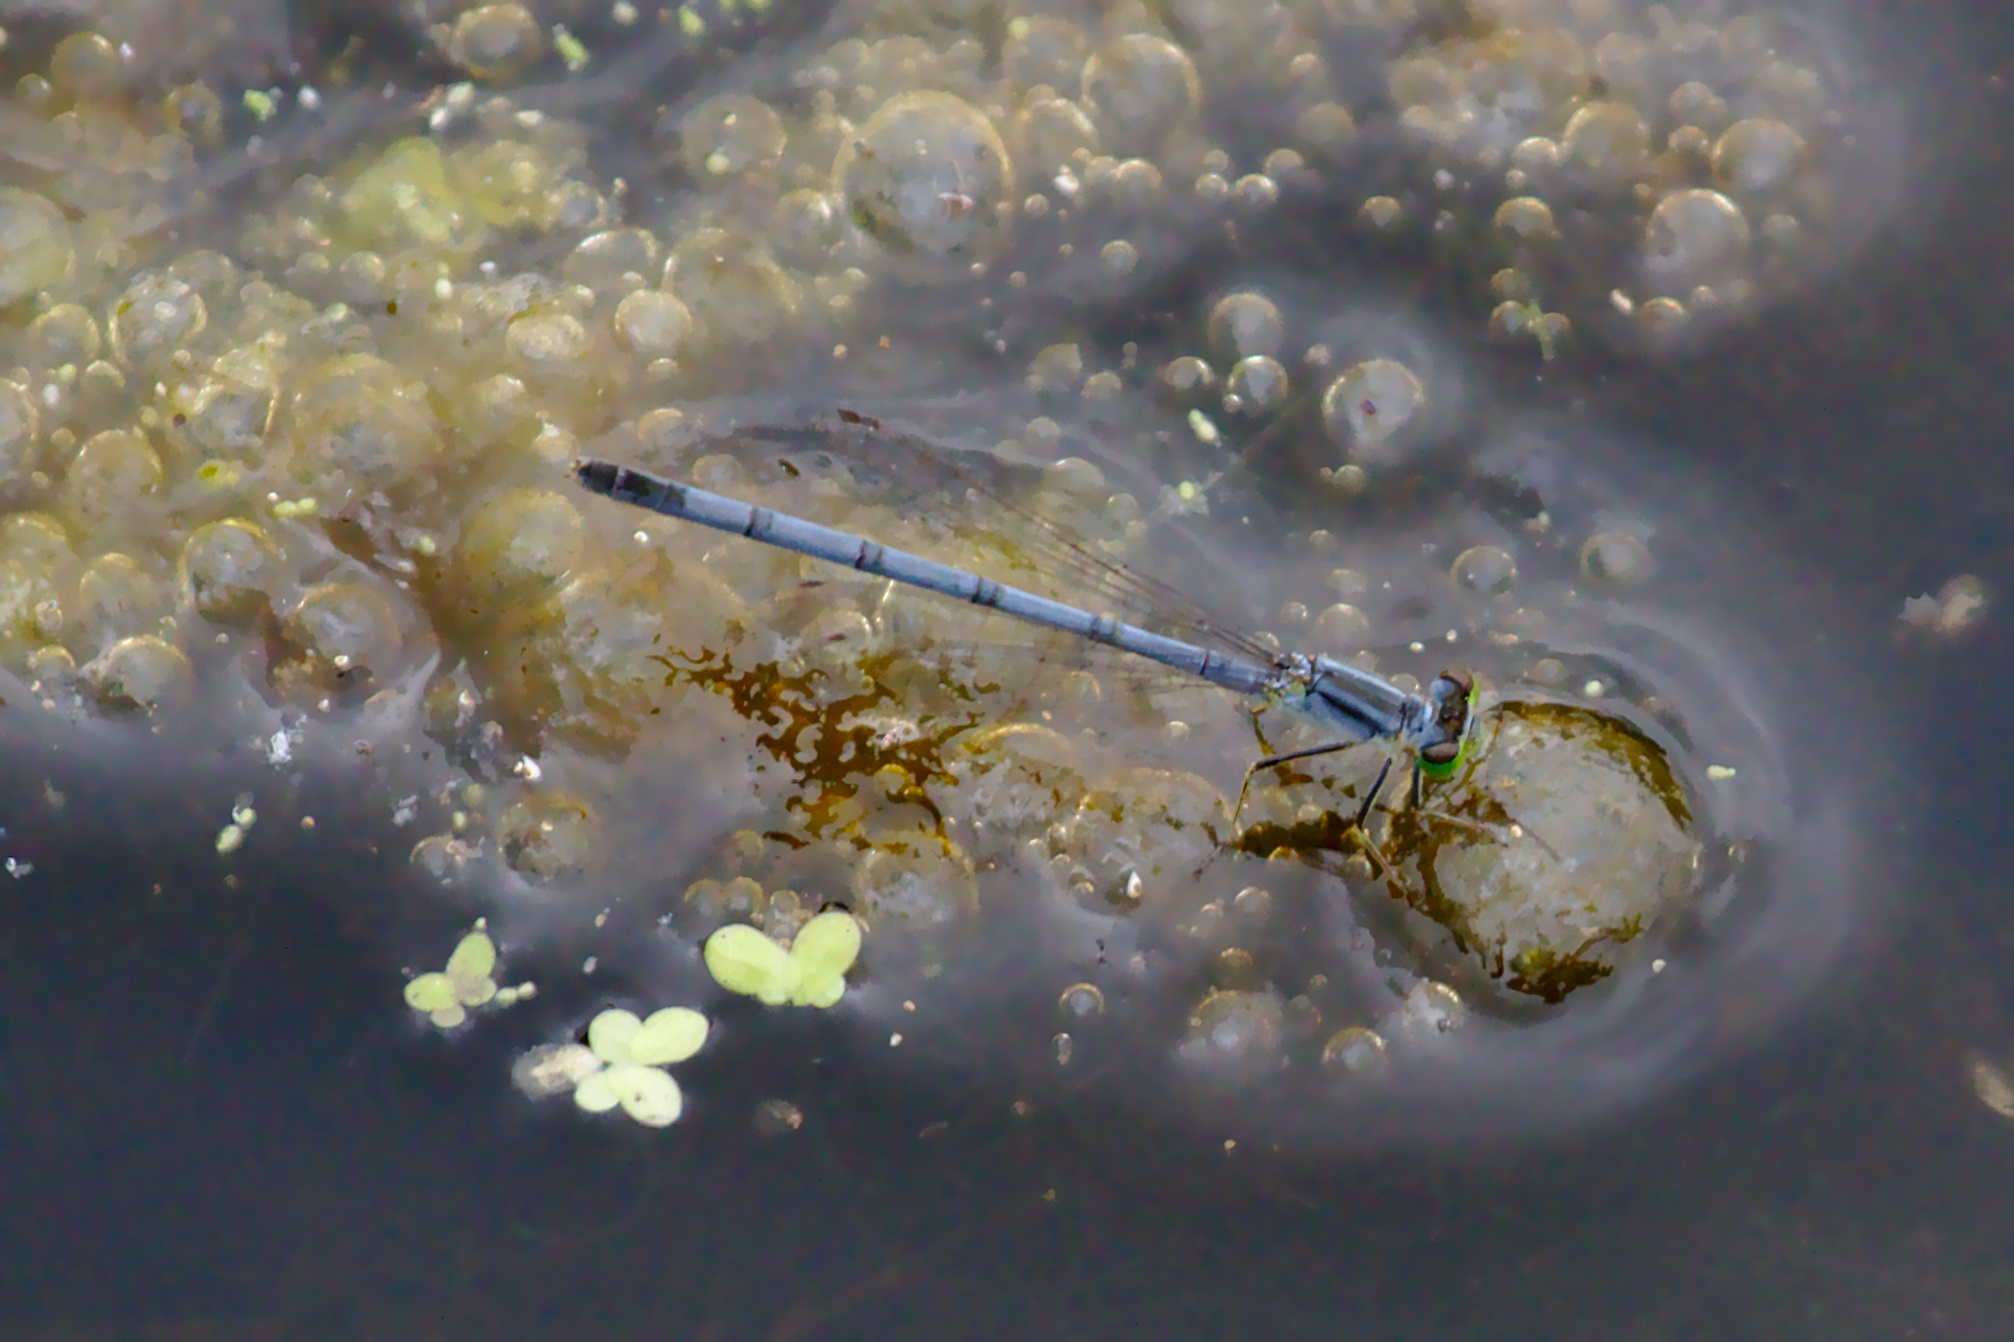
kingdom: Animalia
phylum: Arthropoda
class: Insecta
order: Odonata
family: Coenagrionidae
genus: Ischnura
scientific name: Ischnura verticalis
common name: Eastern forktail
